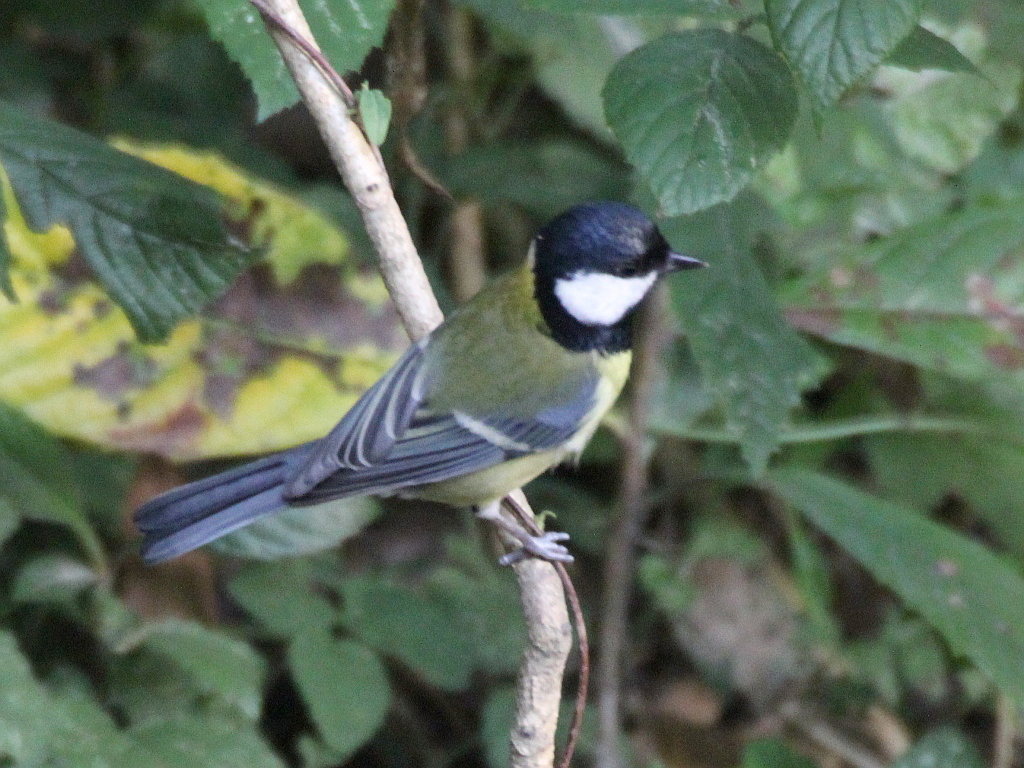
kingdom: Animalia
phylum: Chordata
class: Aves
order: Passeriformes
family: Paridae
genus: Parus
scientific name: Parus major
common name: Great tit
